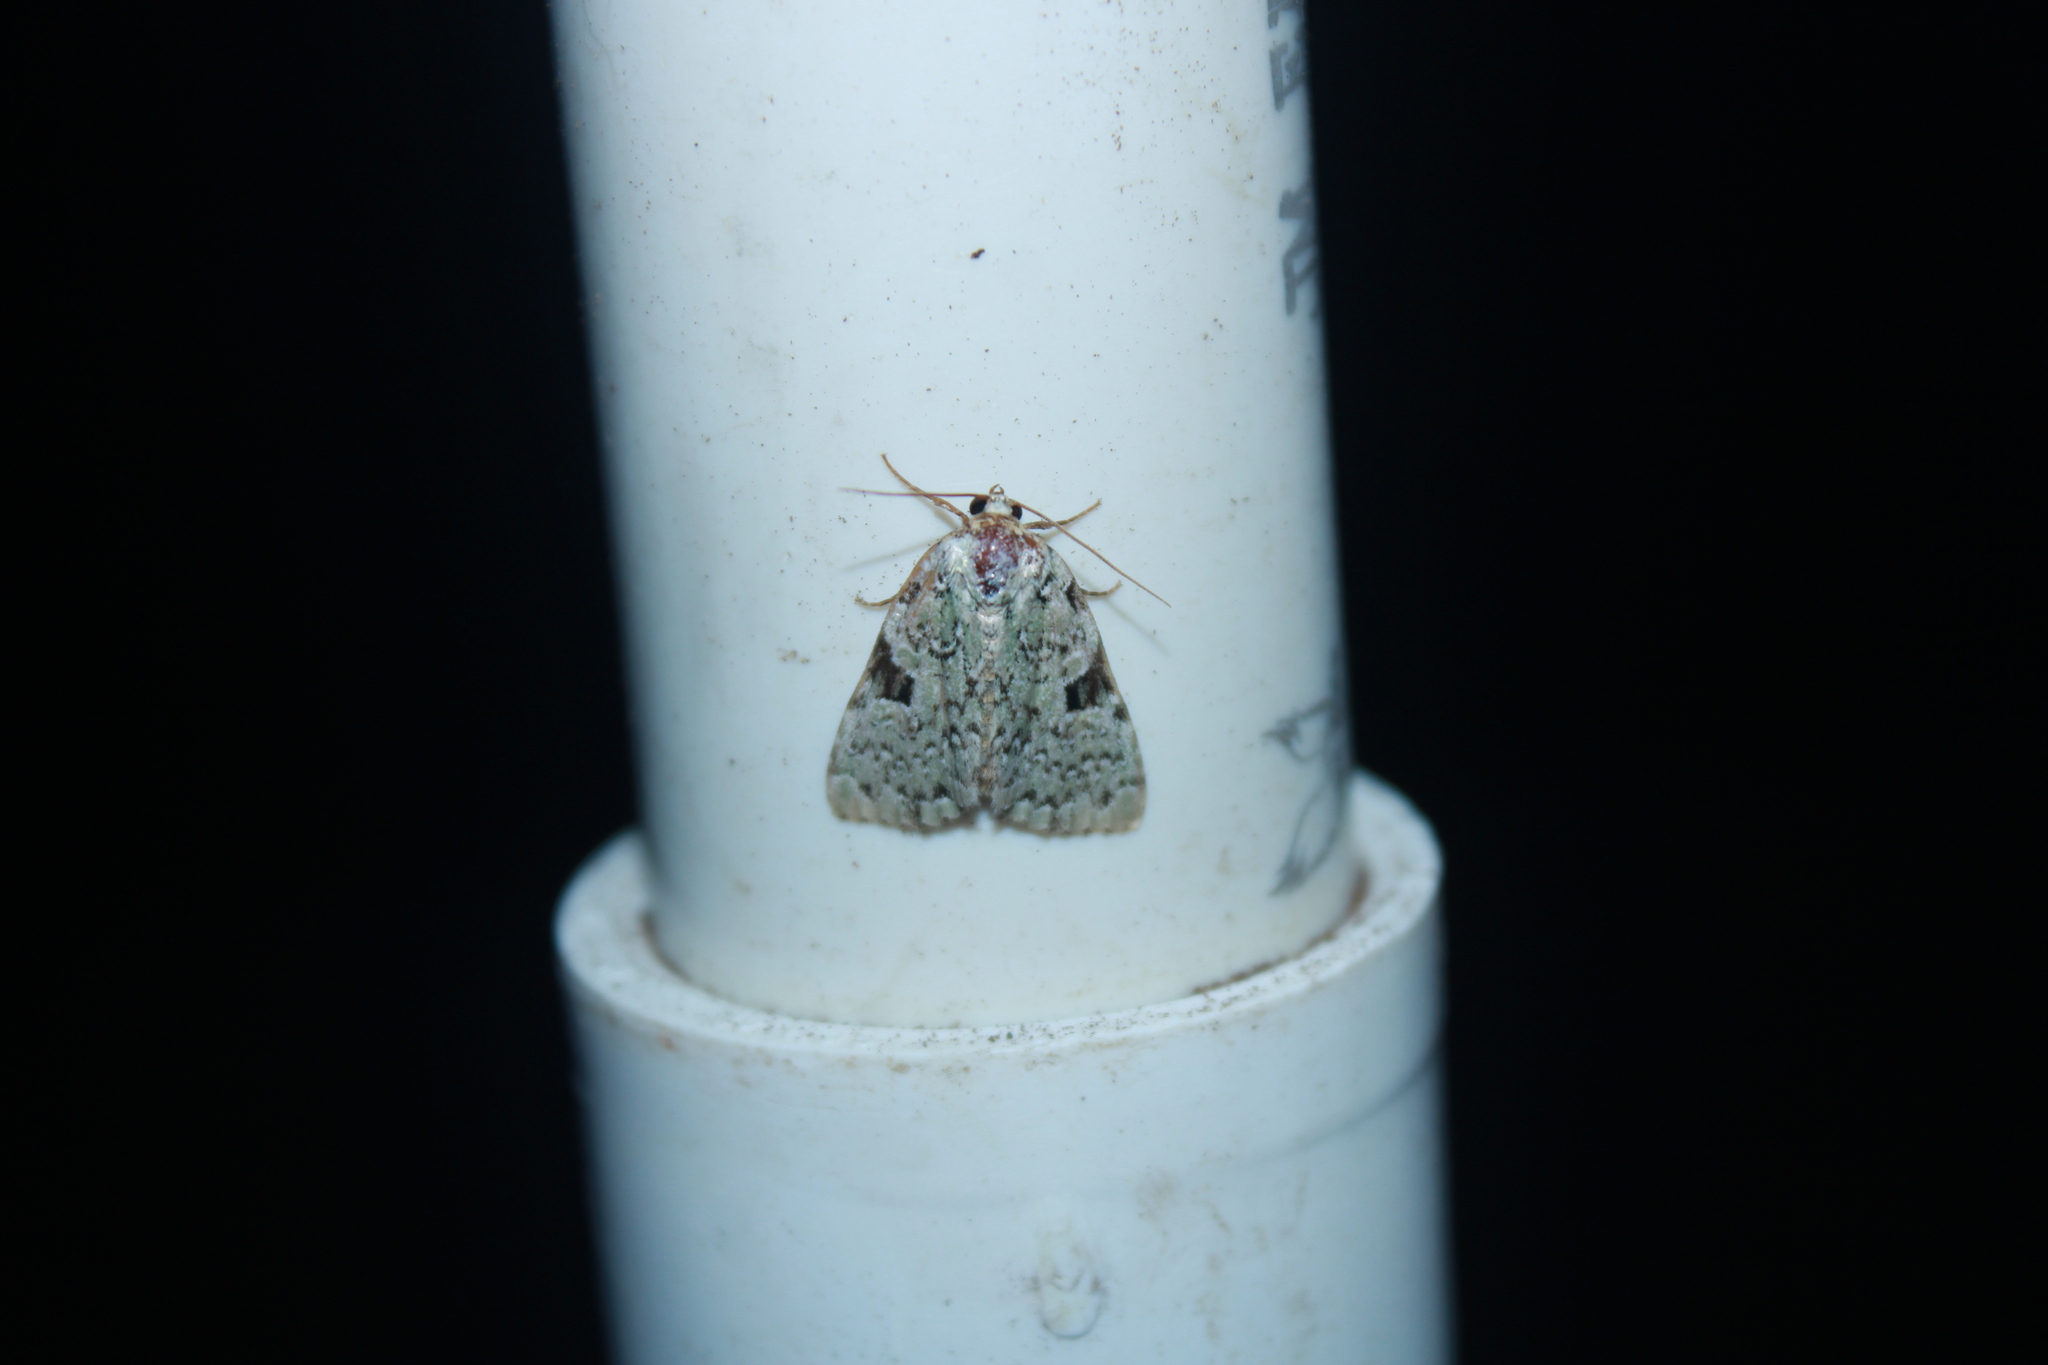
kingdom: Animalia
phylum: Arthropoda
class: Insecta
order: Lepidoptera
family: Noctuidae
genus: Leuconycta
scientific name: Leuconycta diphteroides
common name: Green leuconycta moth
